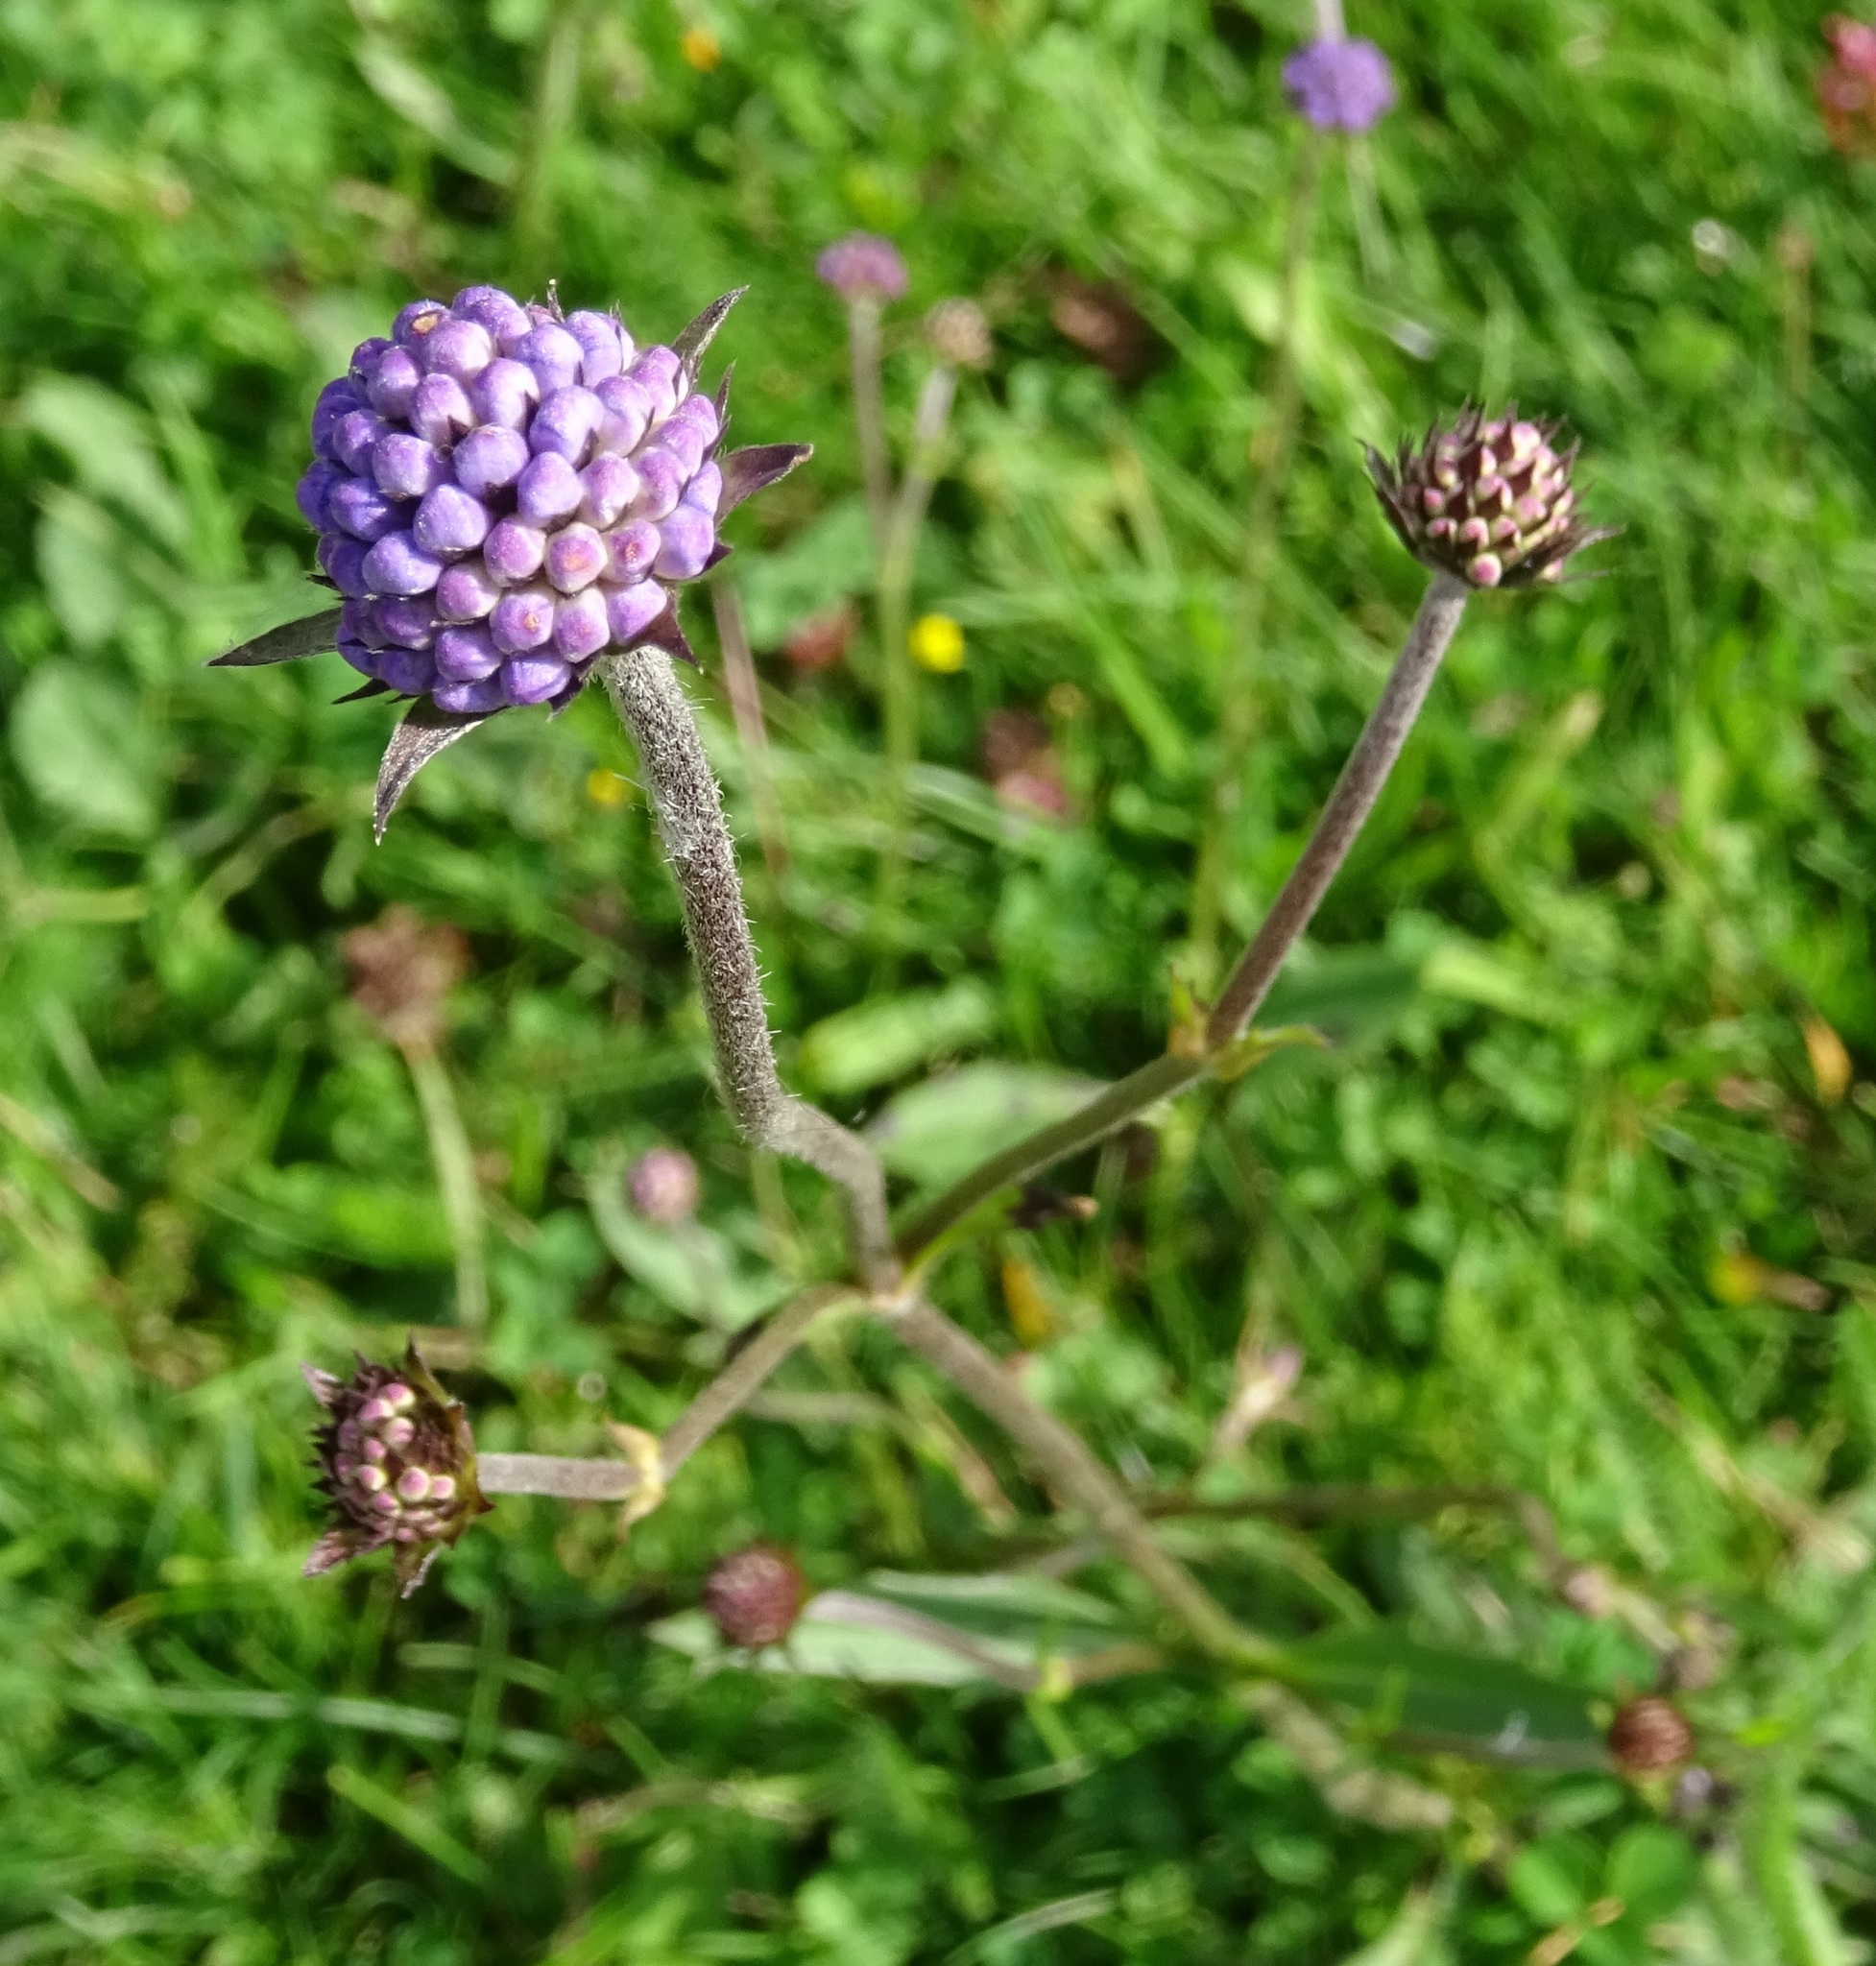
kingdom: Plantae
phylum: Tracheophyta
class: Magnoliopsida
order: Dipsacales
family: Caprifoliaceae
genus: Succisa
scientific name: Succisa pratensis
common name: Devil's-bit
